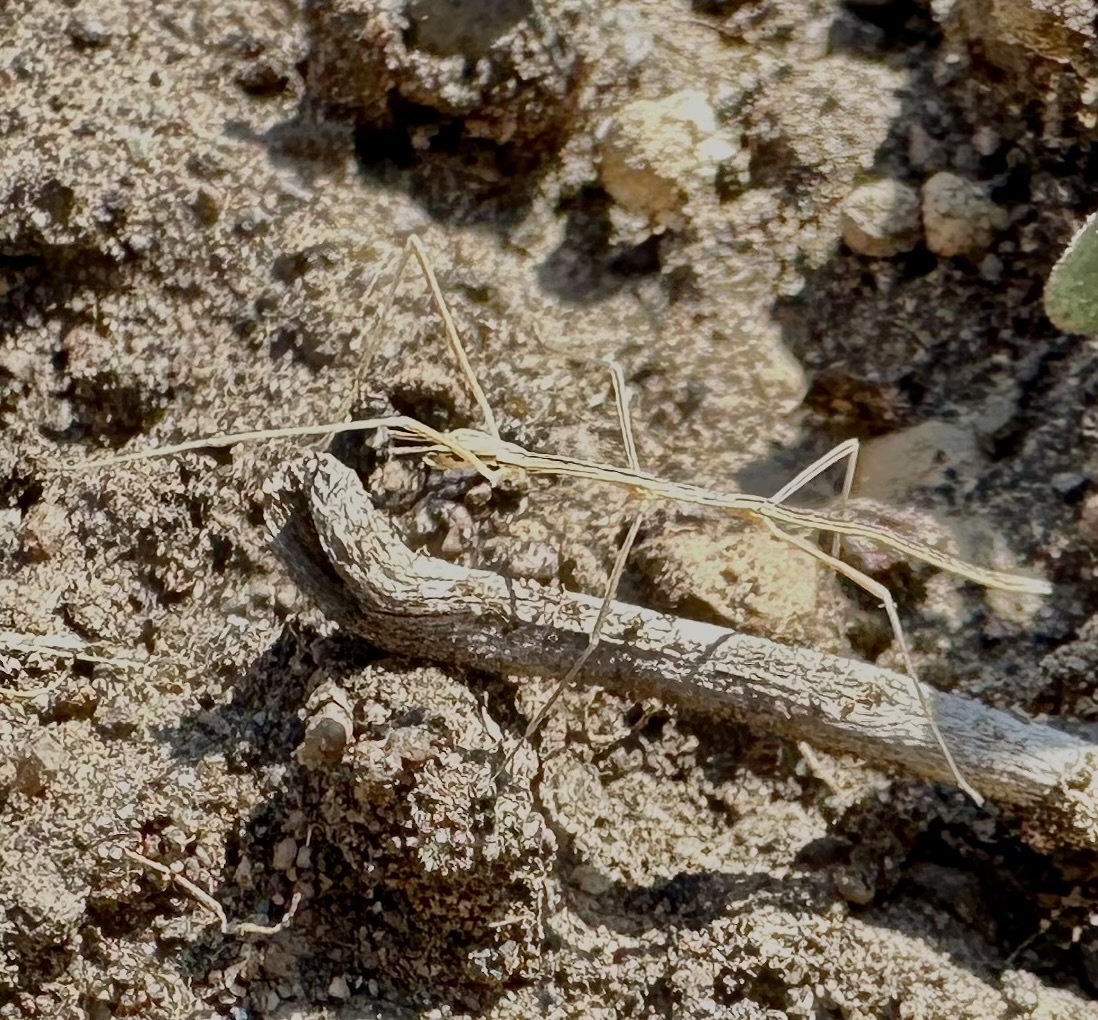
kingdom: Animalia
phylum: Arthropoda
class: Insecta
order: Phasmida
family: Heteronemiidae
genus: Parabacillus
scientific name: Parabacillus hesperus
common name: Western short-horned walkingstick
